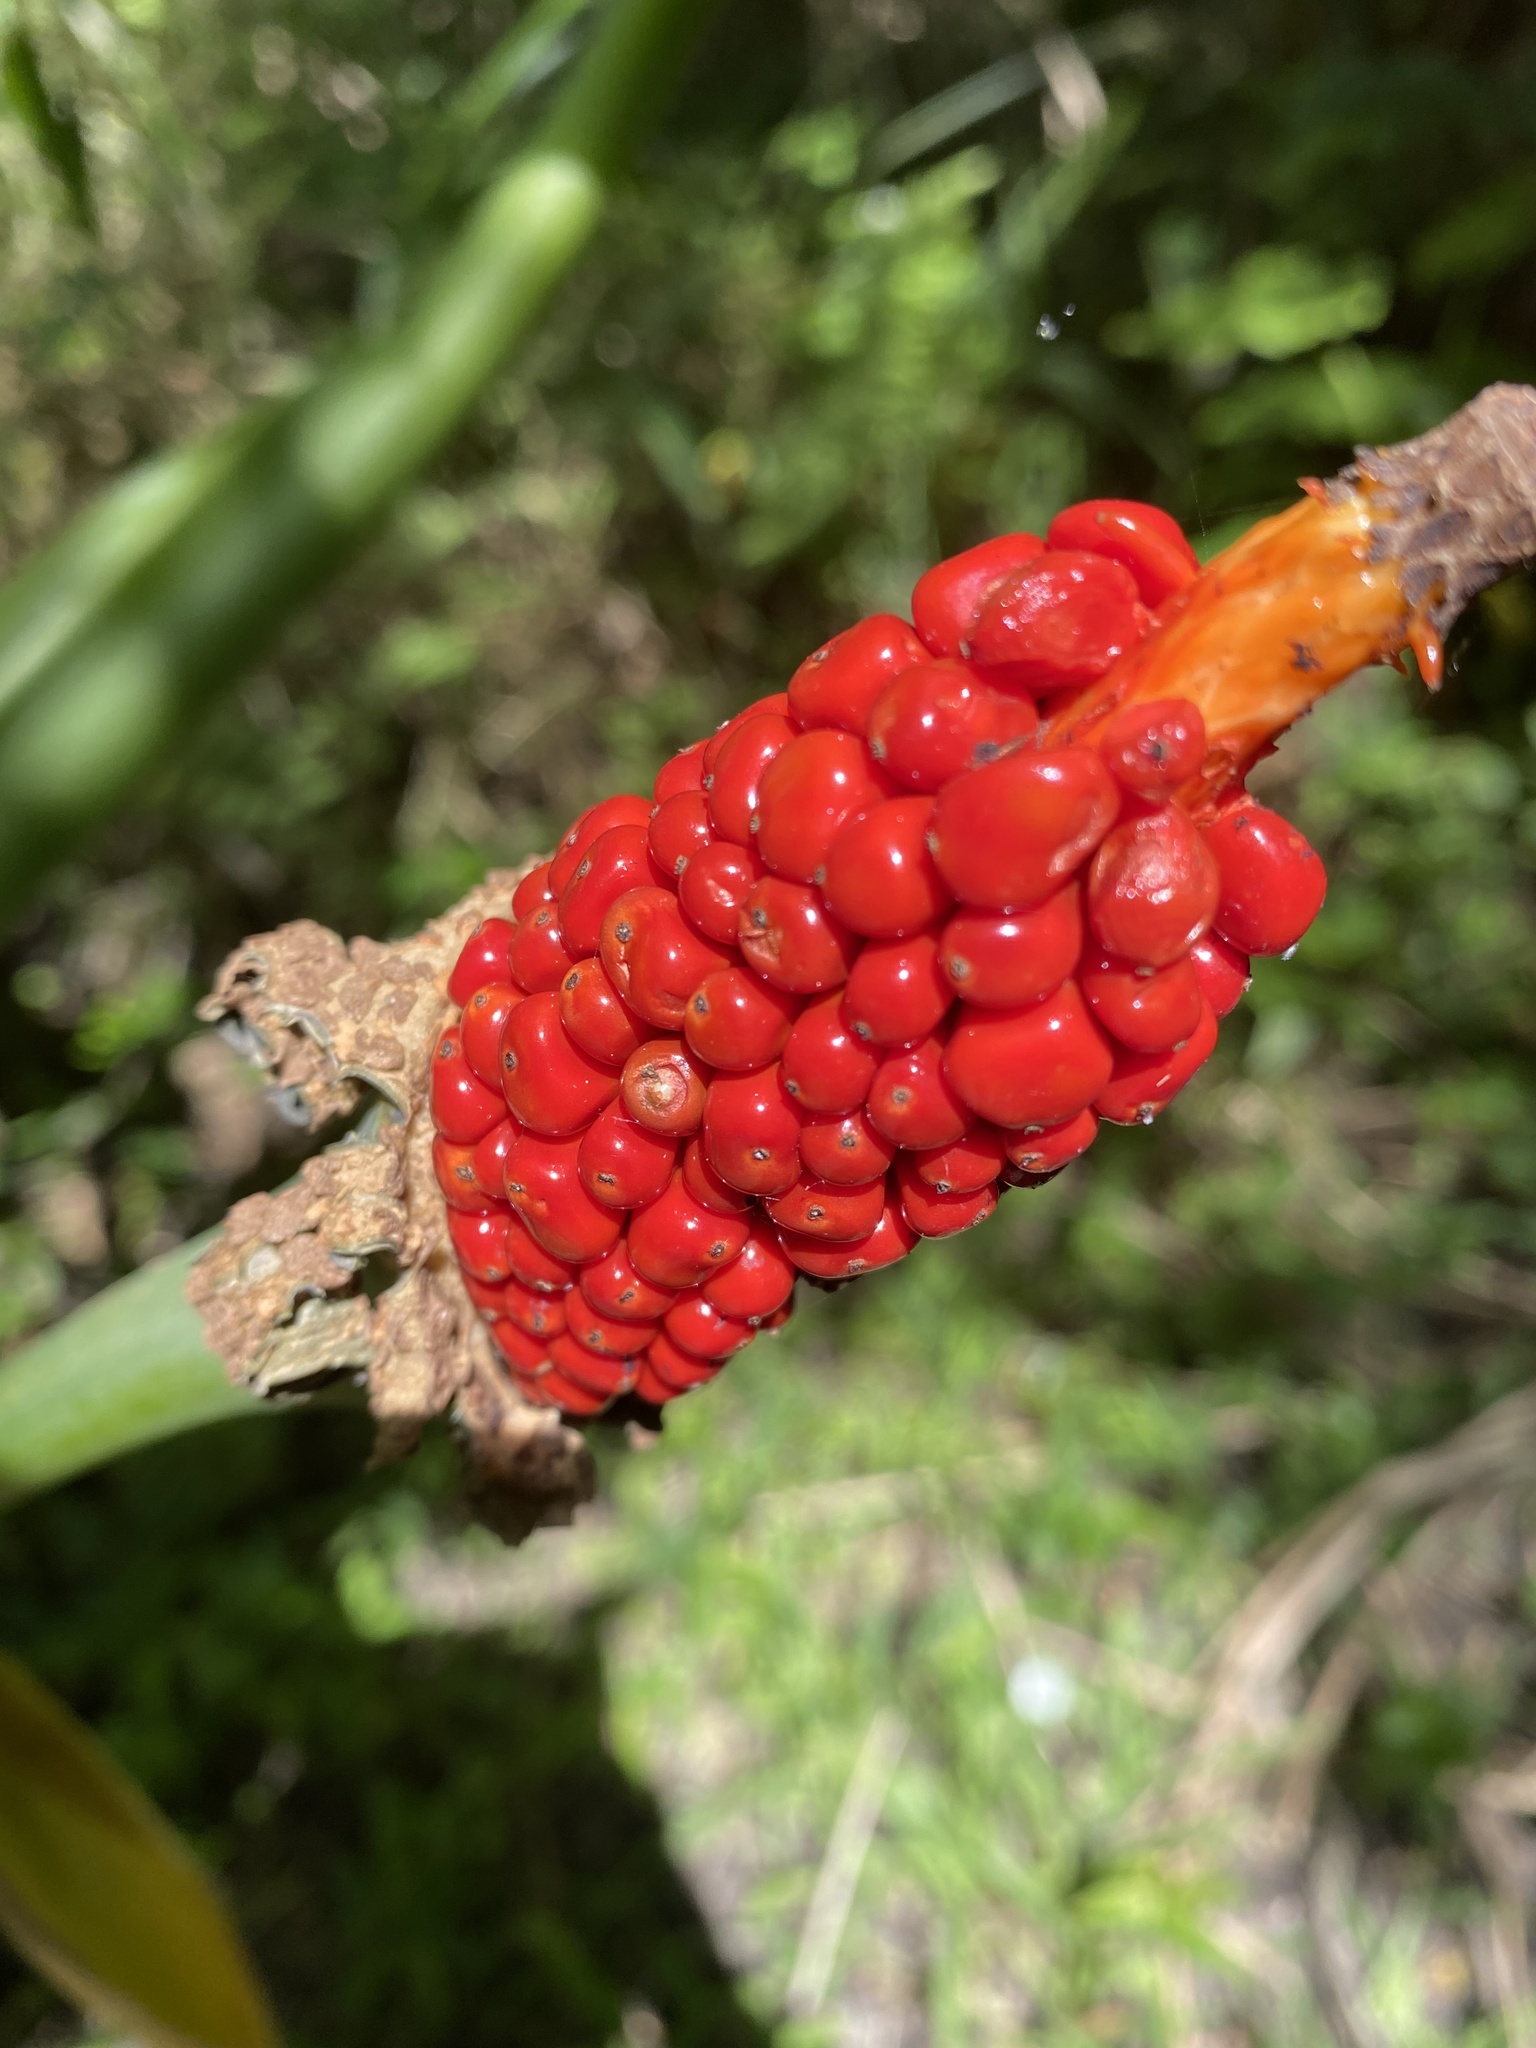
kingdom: Plantae
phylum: Tracheophyta
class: Liliopsida
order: Alismatales
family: Araceae
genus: Alocasia
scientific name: Alocasia odora
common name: Asian taro
